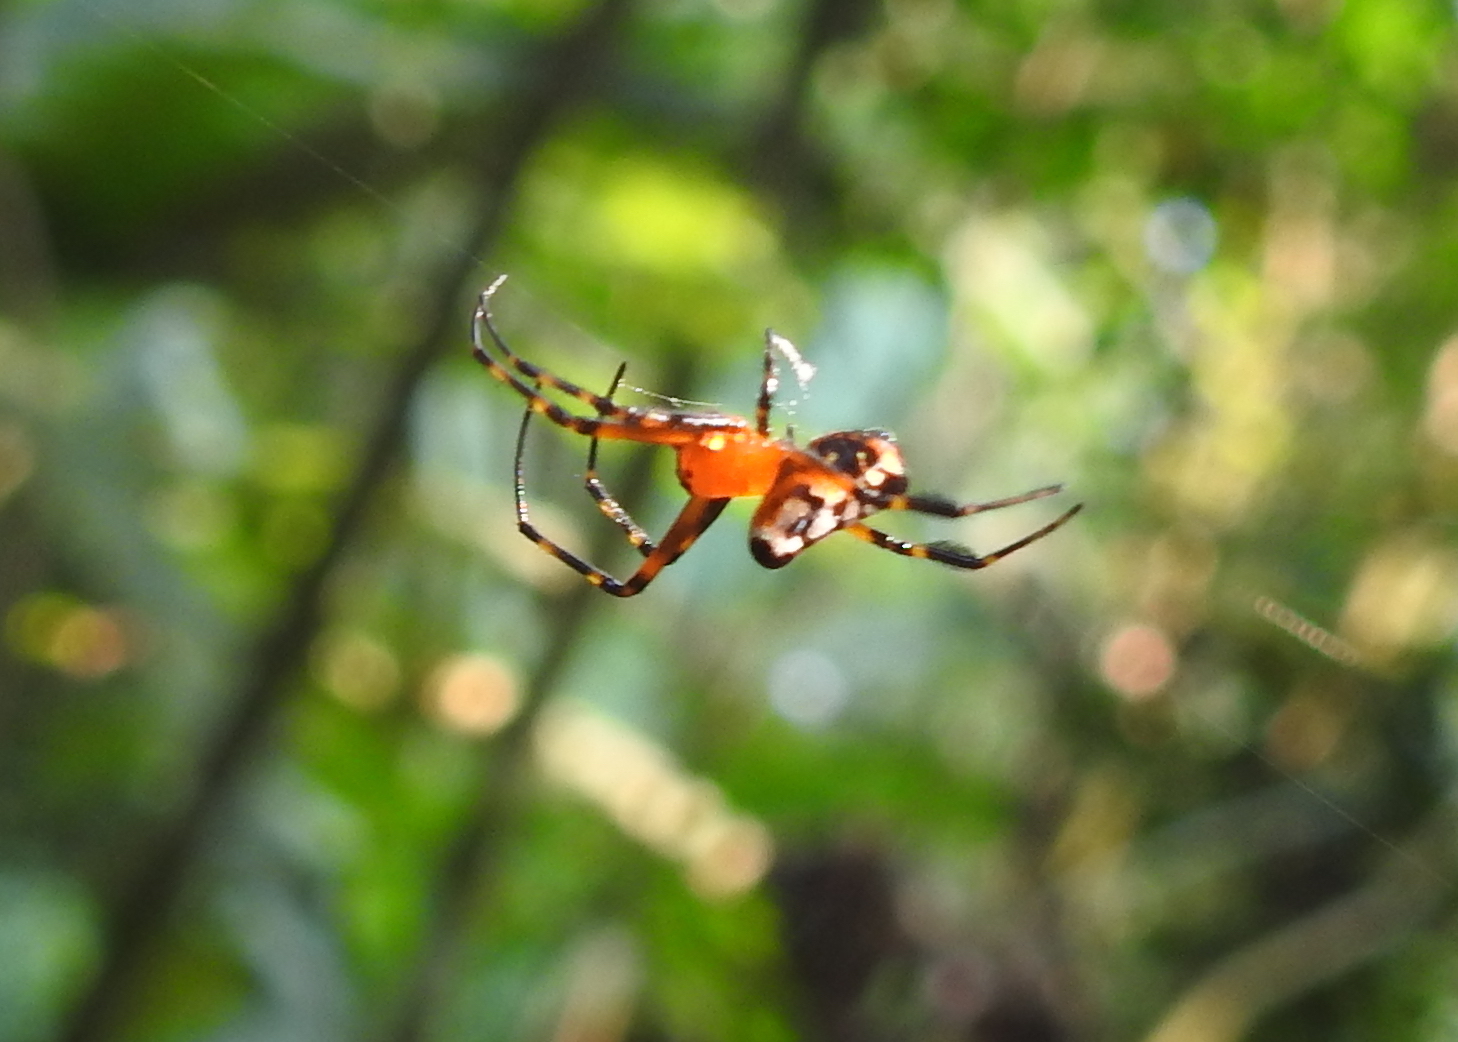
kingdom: Animalia
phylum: Arthropoda
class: Arachnida
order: Araneae
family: Tetragnathidae
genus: Leucauge
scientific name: Leucauge fastigata
